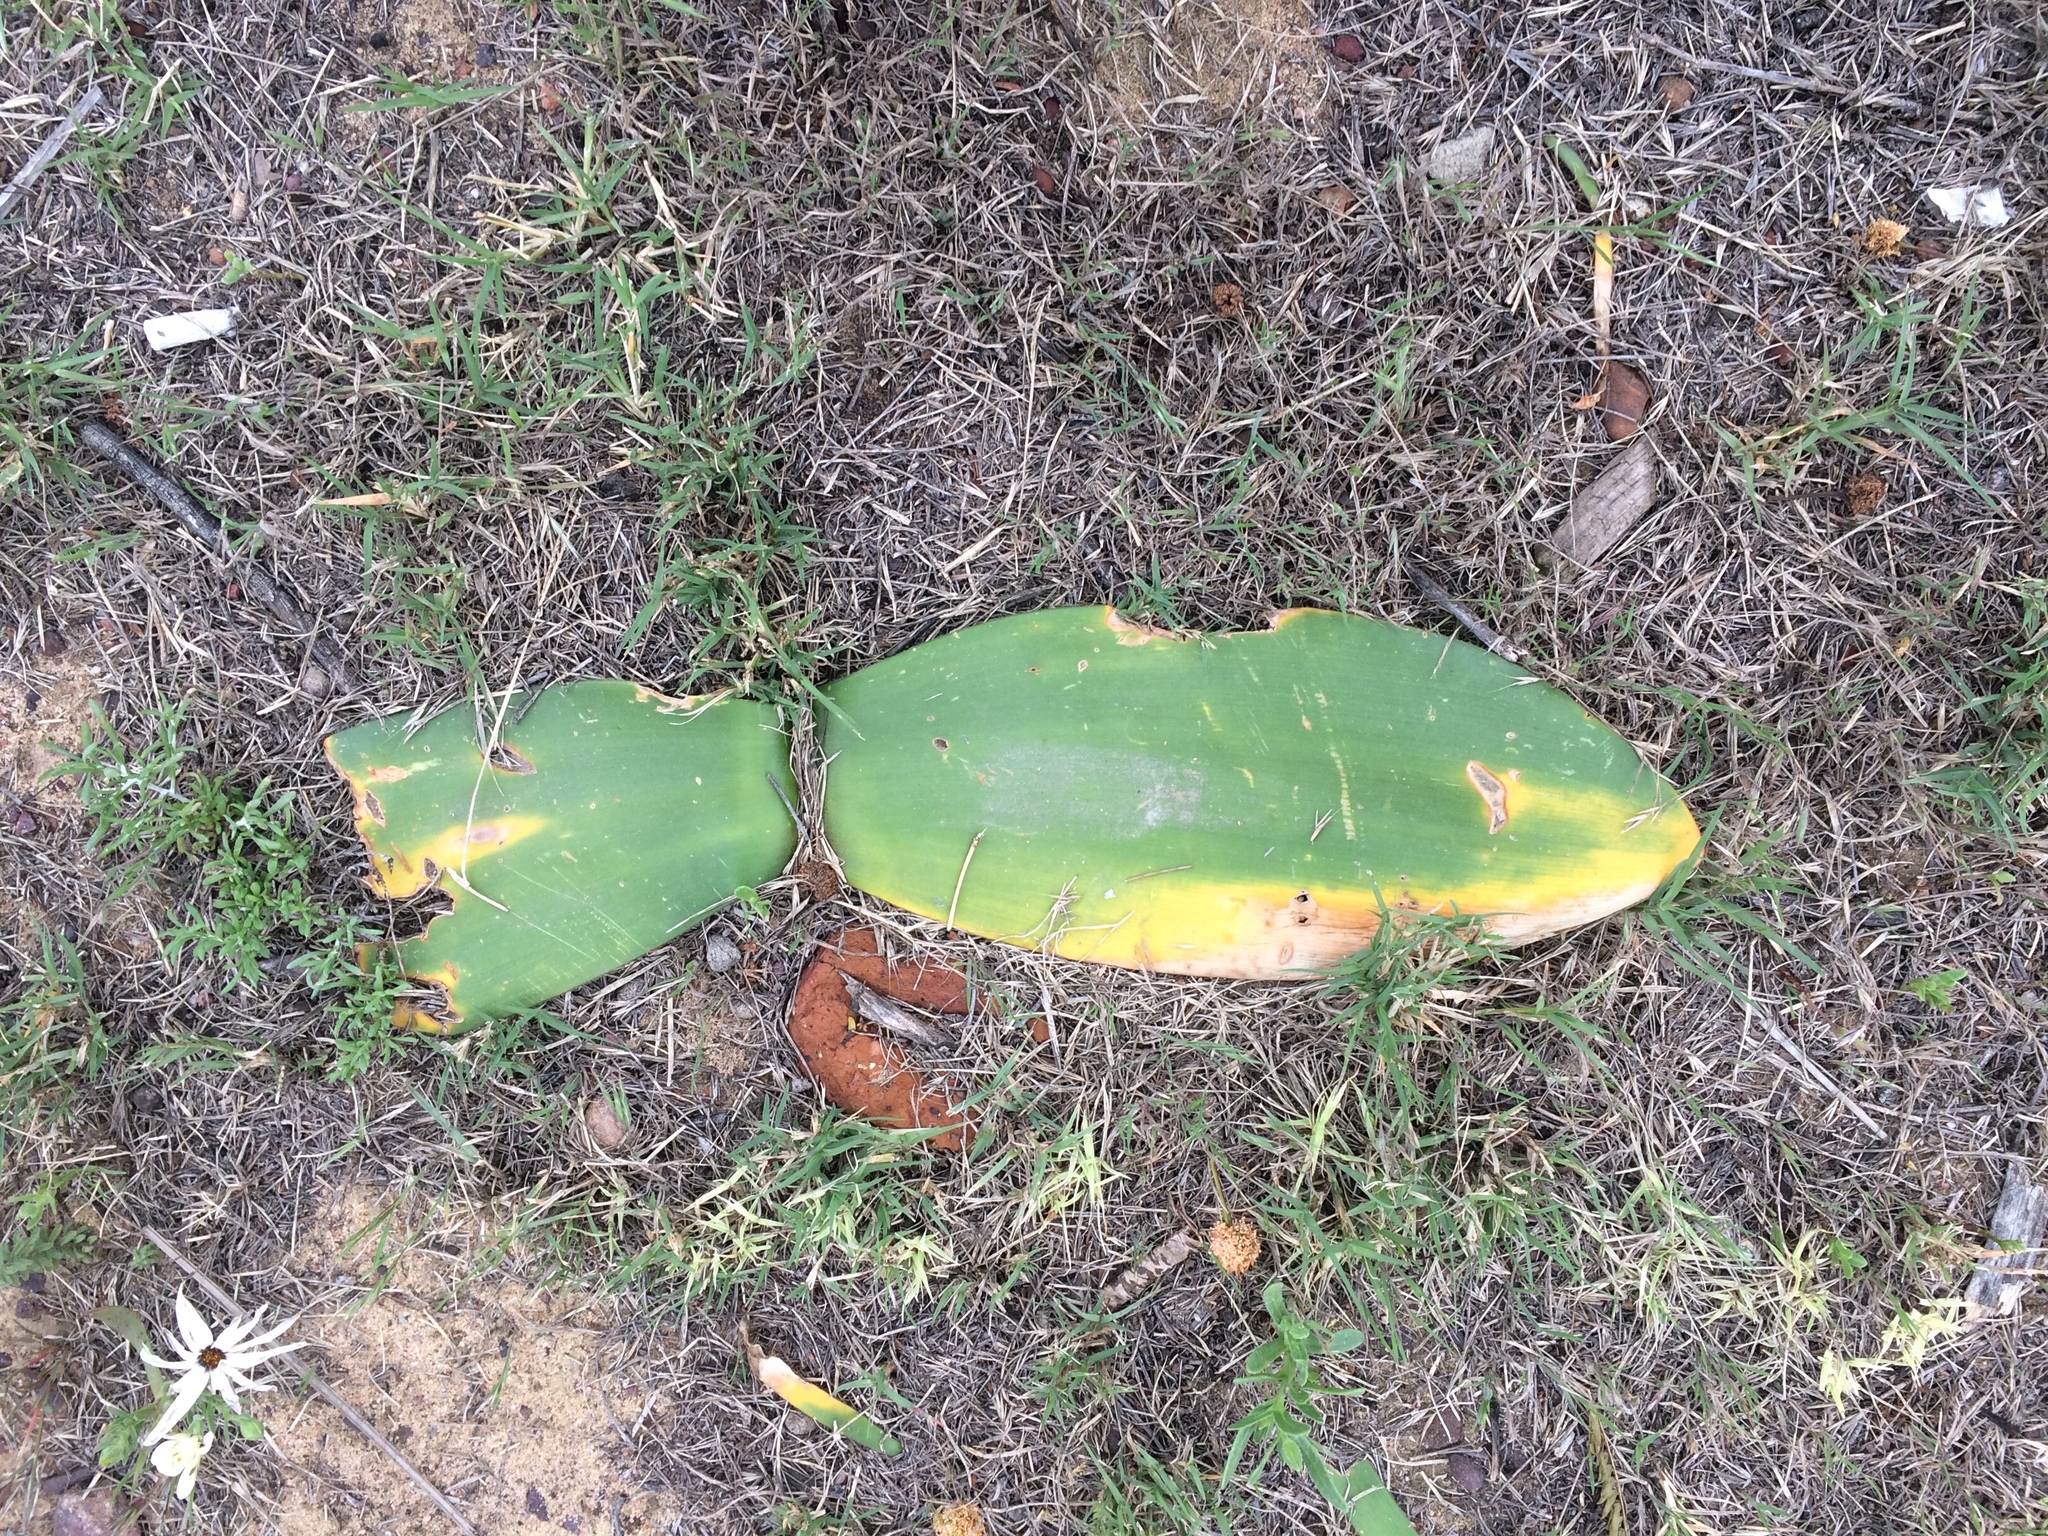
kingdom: Plantae
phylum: Tracheophyta
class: Liliopsida
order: Asparagales
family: Amaryllidaceae
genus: Haemanthus
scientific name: Haemanthus pubescens
